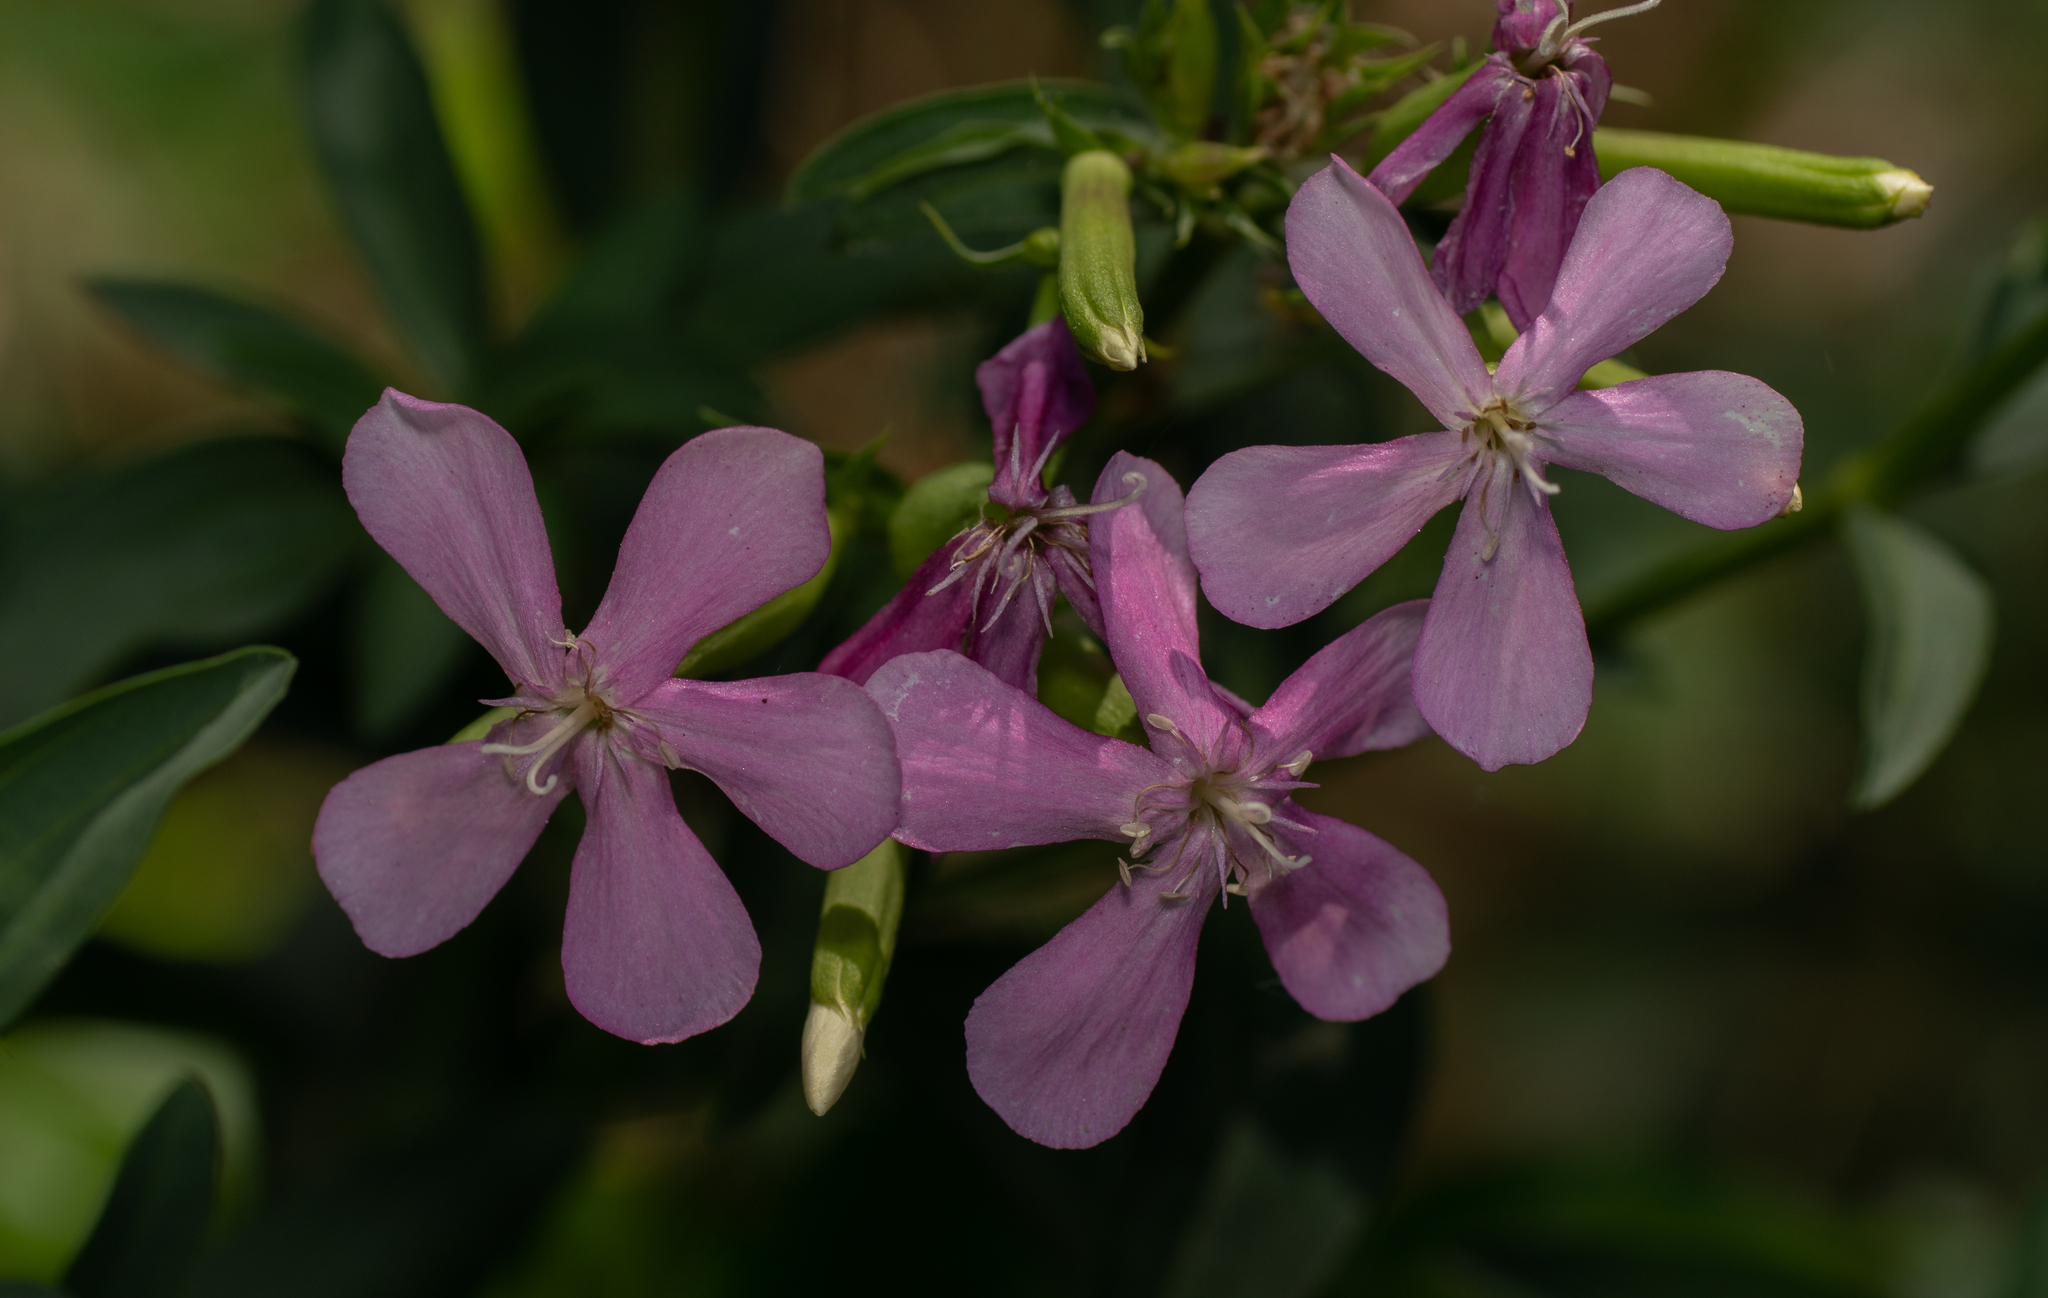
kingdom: Plantae
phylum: Tracheophyta
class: Magnoliopsida
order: Caryophyllales
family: Caryophyllaceae
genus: Saponaria
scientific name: Saponaria officinalis
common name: Soapwort
